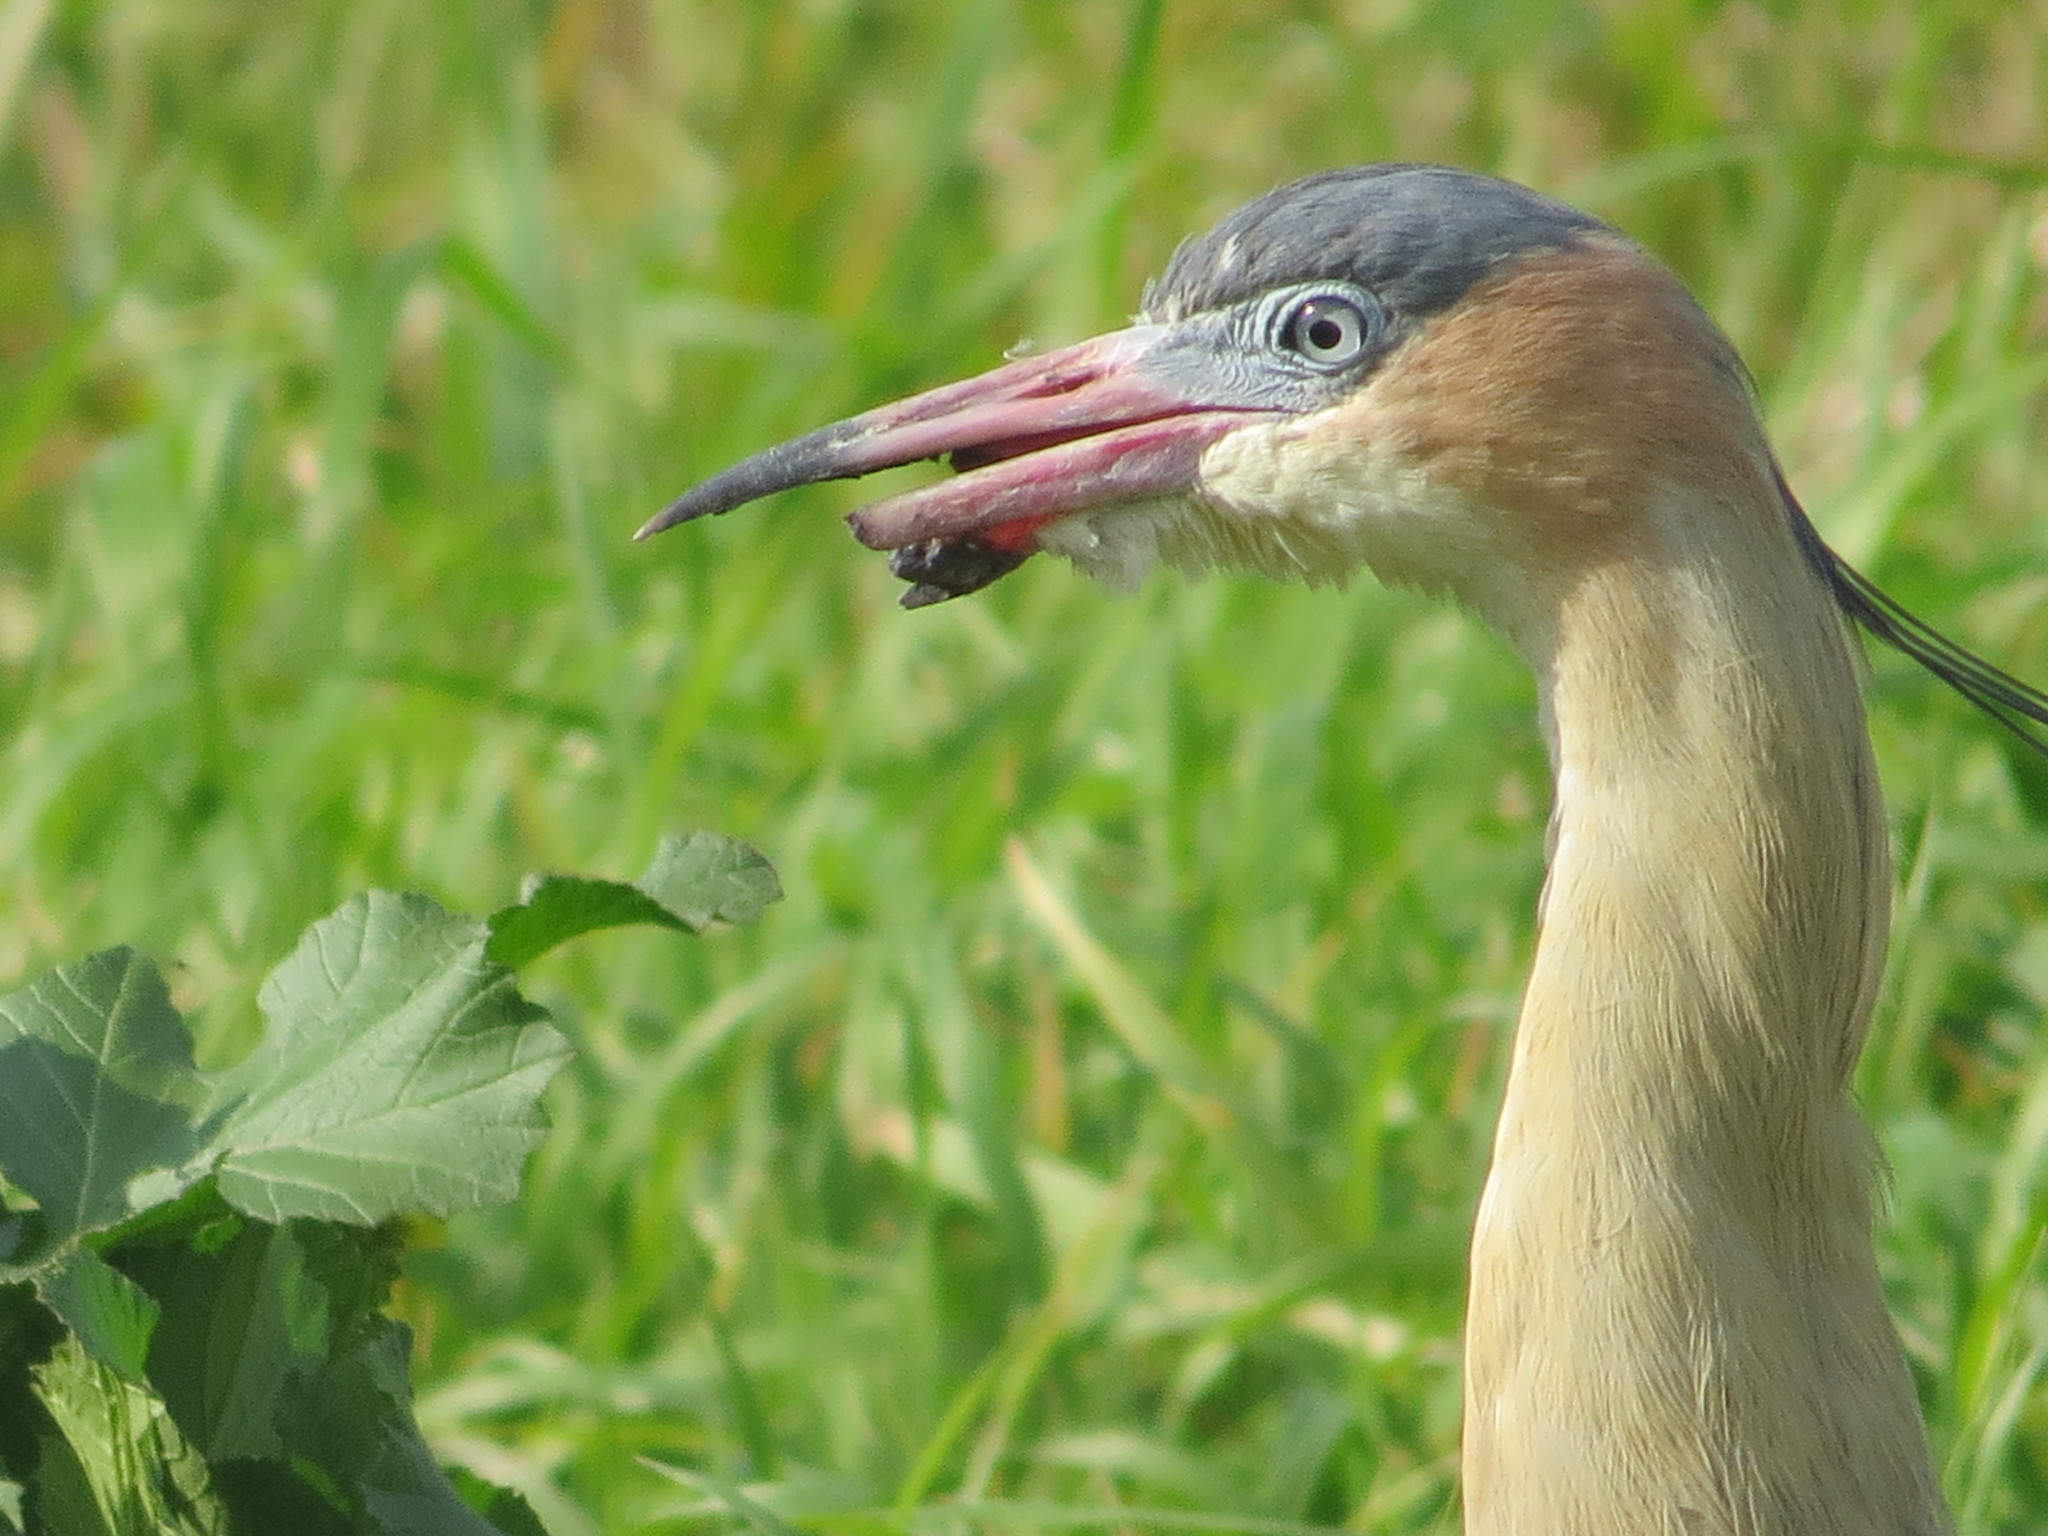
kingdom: Animalia
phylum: Chordata
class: Aves
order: Pelecaniformes
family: Ardeidae
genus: Syrigma
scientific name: Syrigma sibilatrix
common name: Whistling heron
